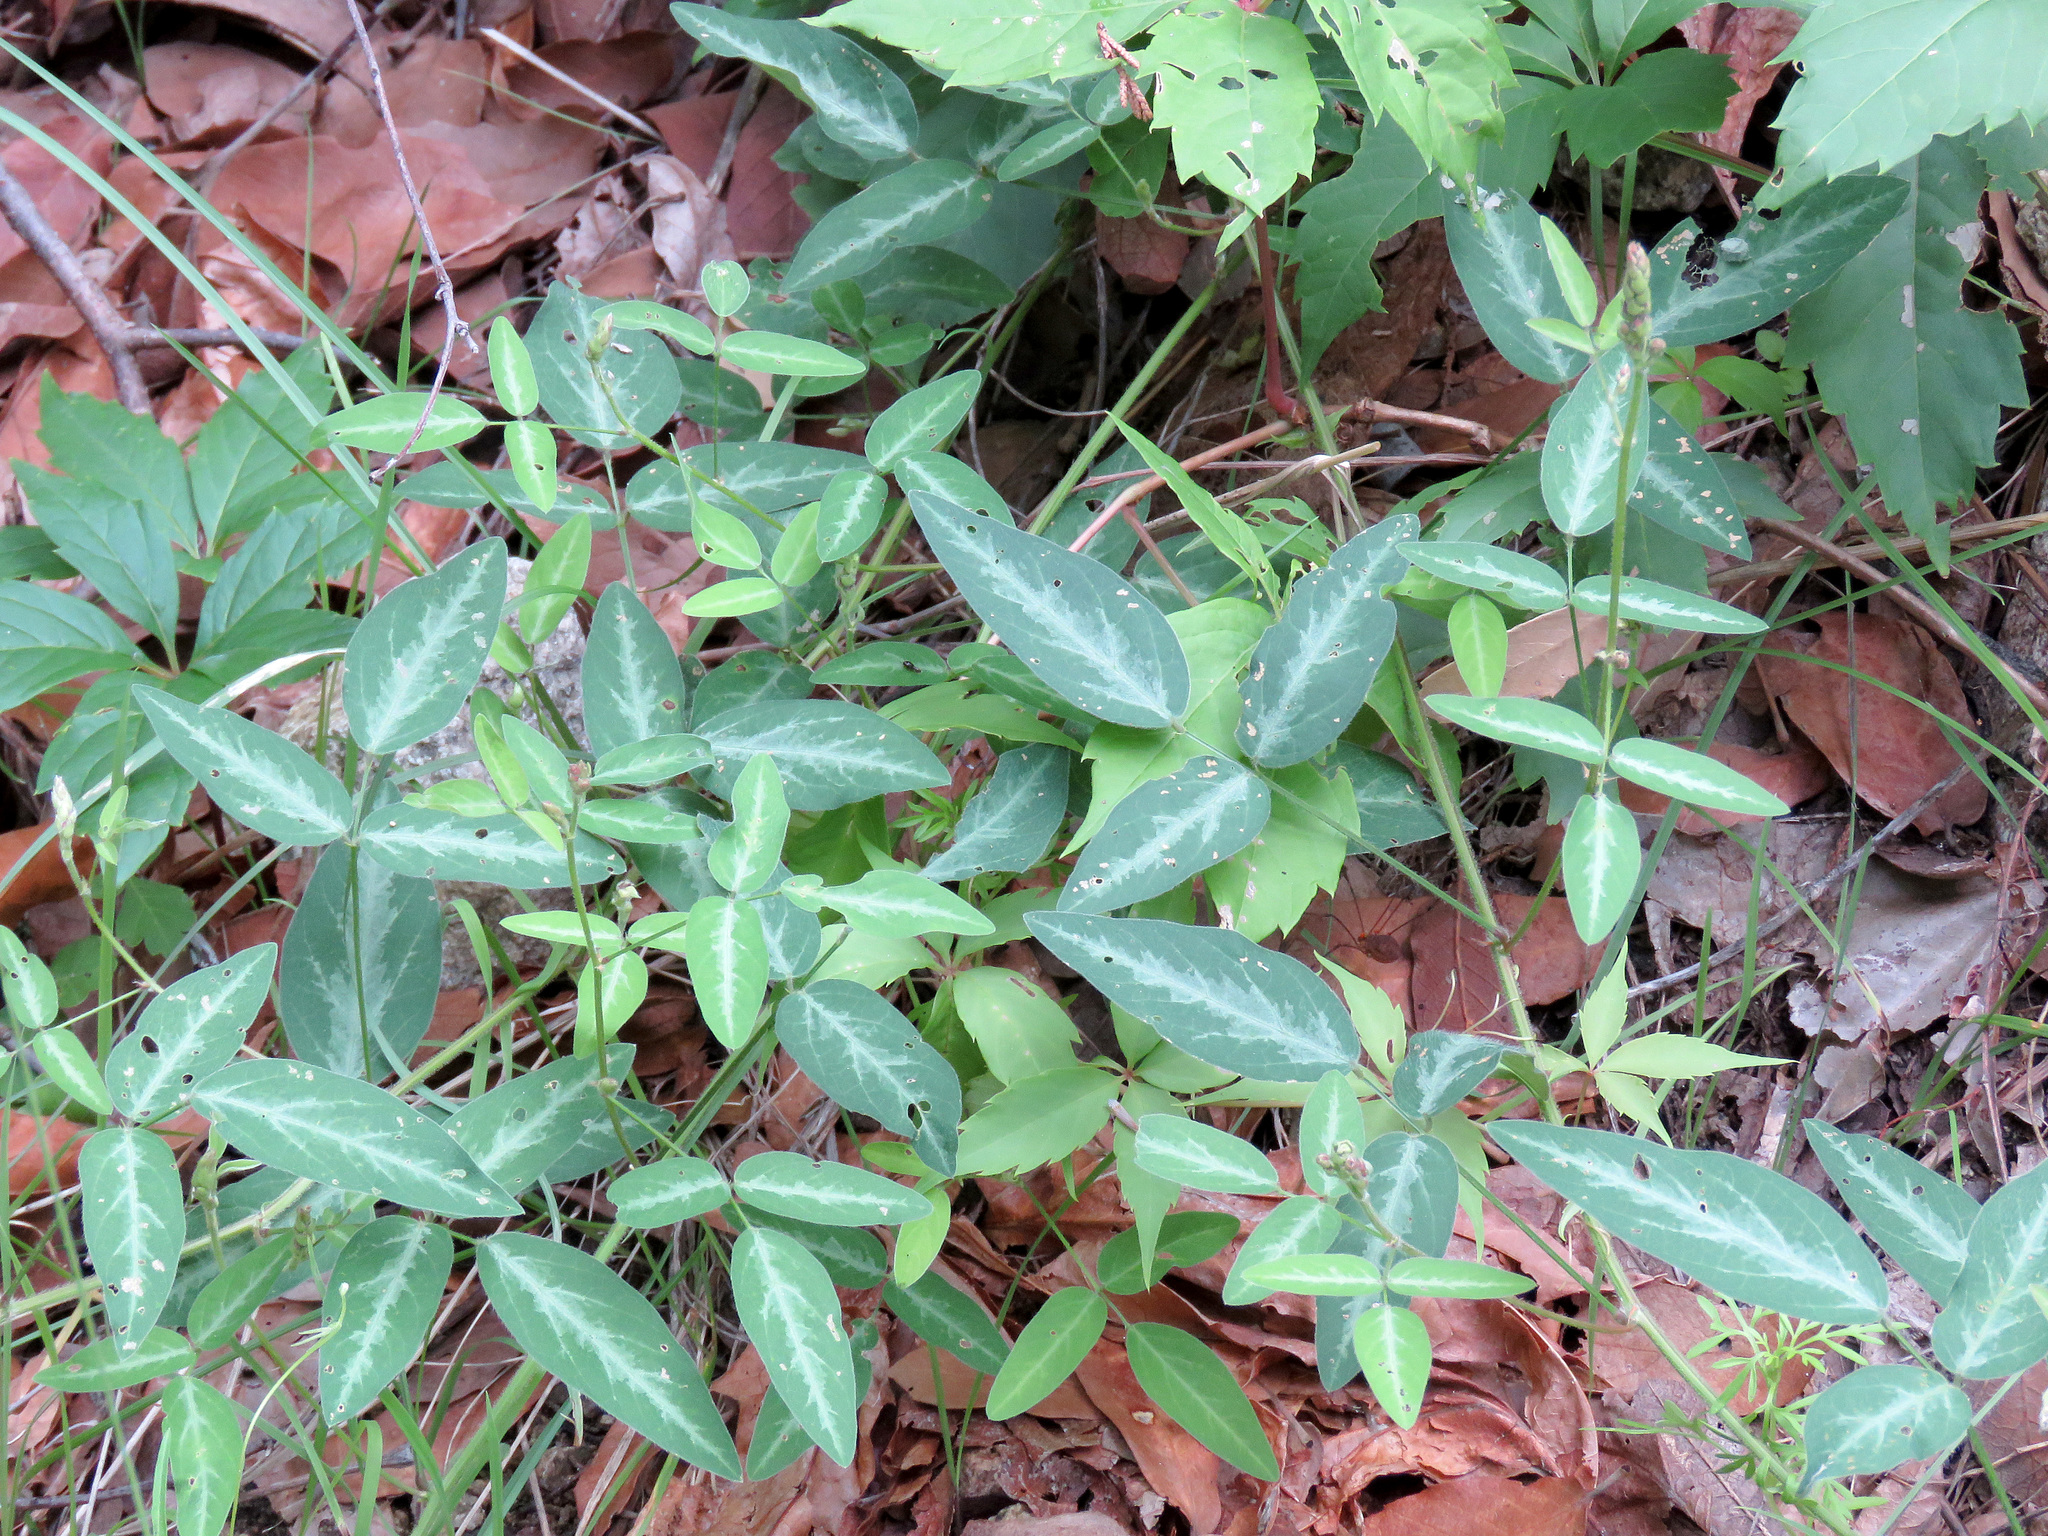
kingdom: Plantae
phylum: Tracheophyta
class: Magnoliopsida
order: Fabales
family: Fabaceae
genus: Desmodium
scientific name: Desmodium batocaulon
